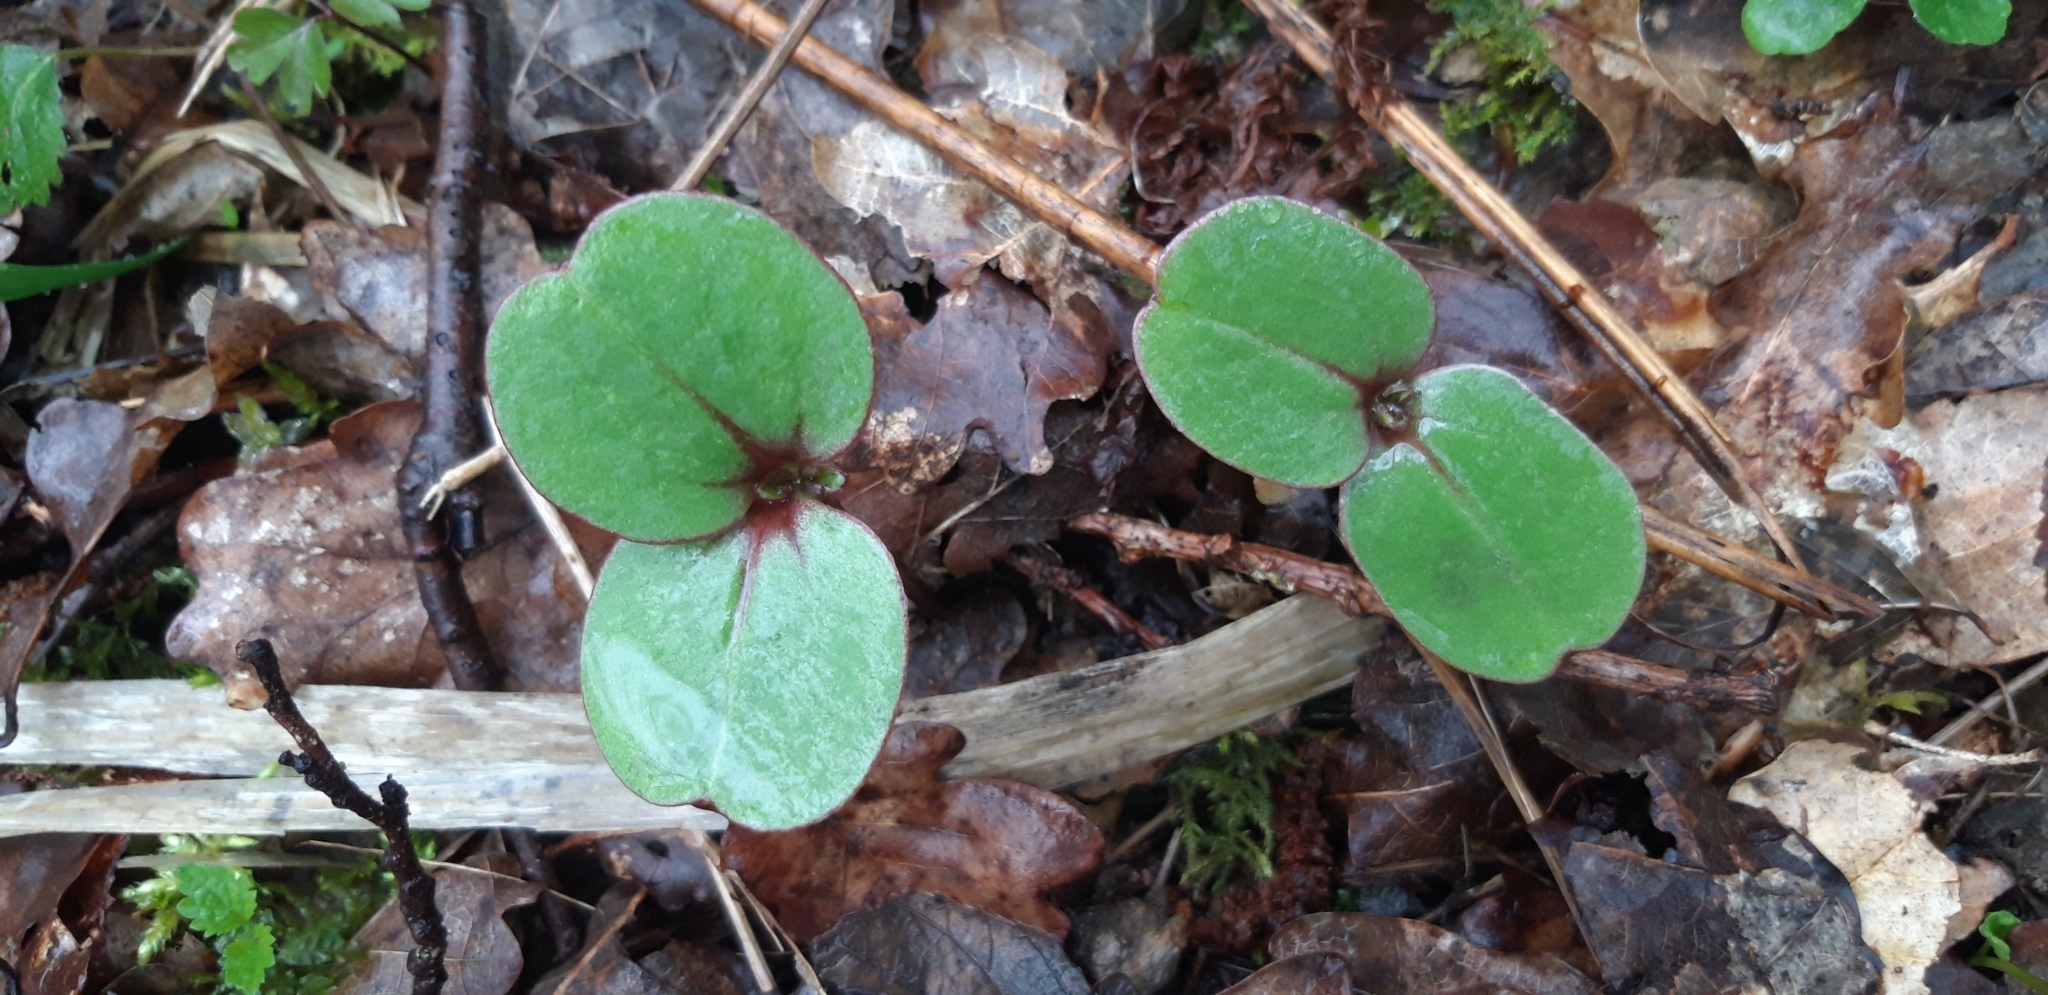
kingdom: Plantae
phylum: Tracheophyta
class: Magnoliopsida
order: Ericales
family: Balsaminaceae
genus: Impatiens
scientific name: Impatiens glandulifera
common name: Himalayan balsam
